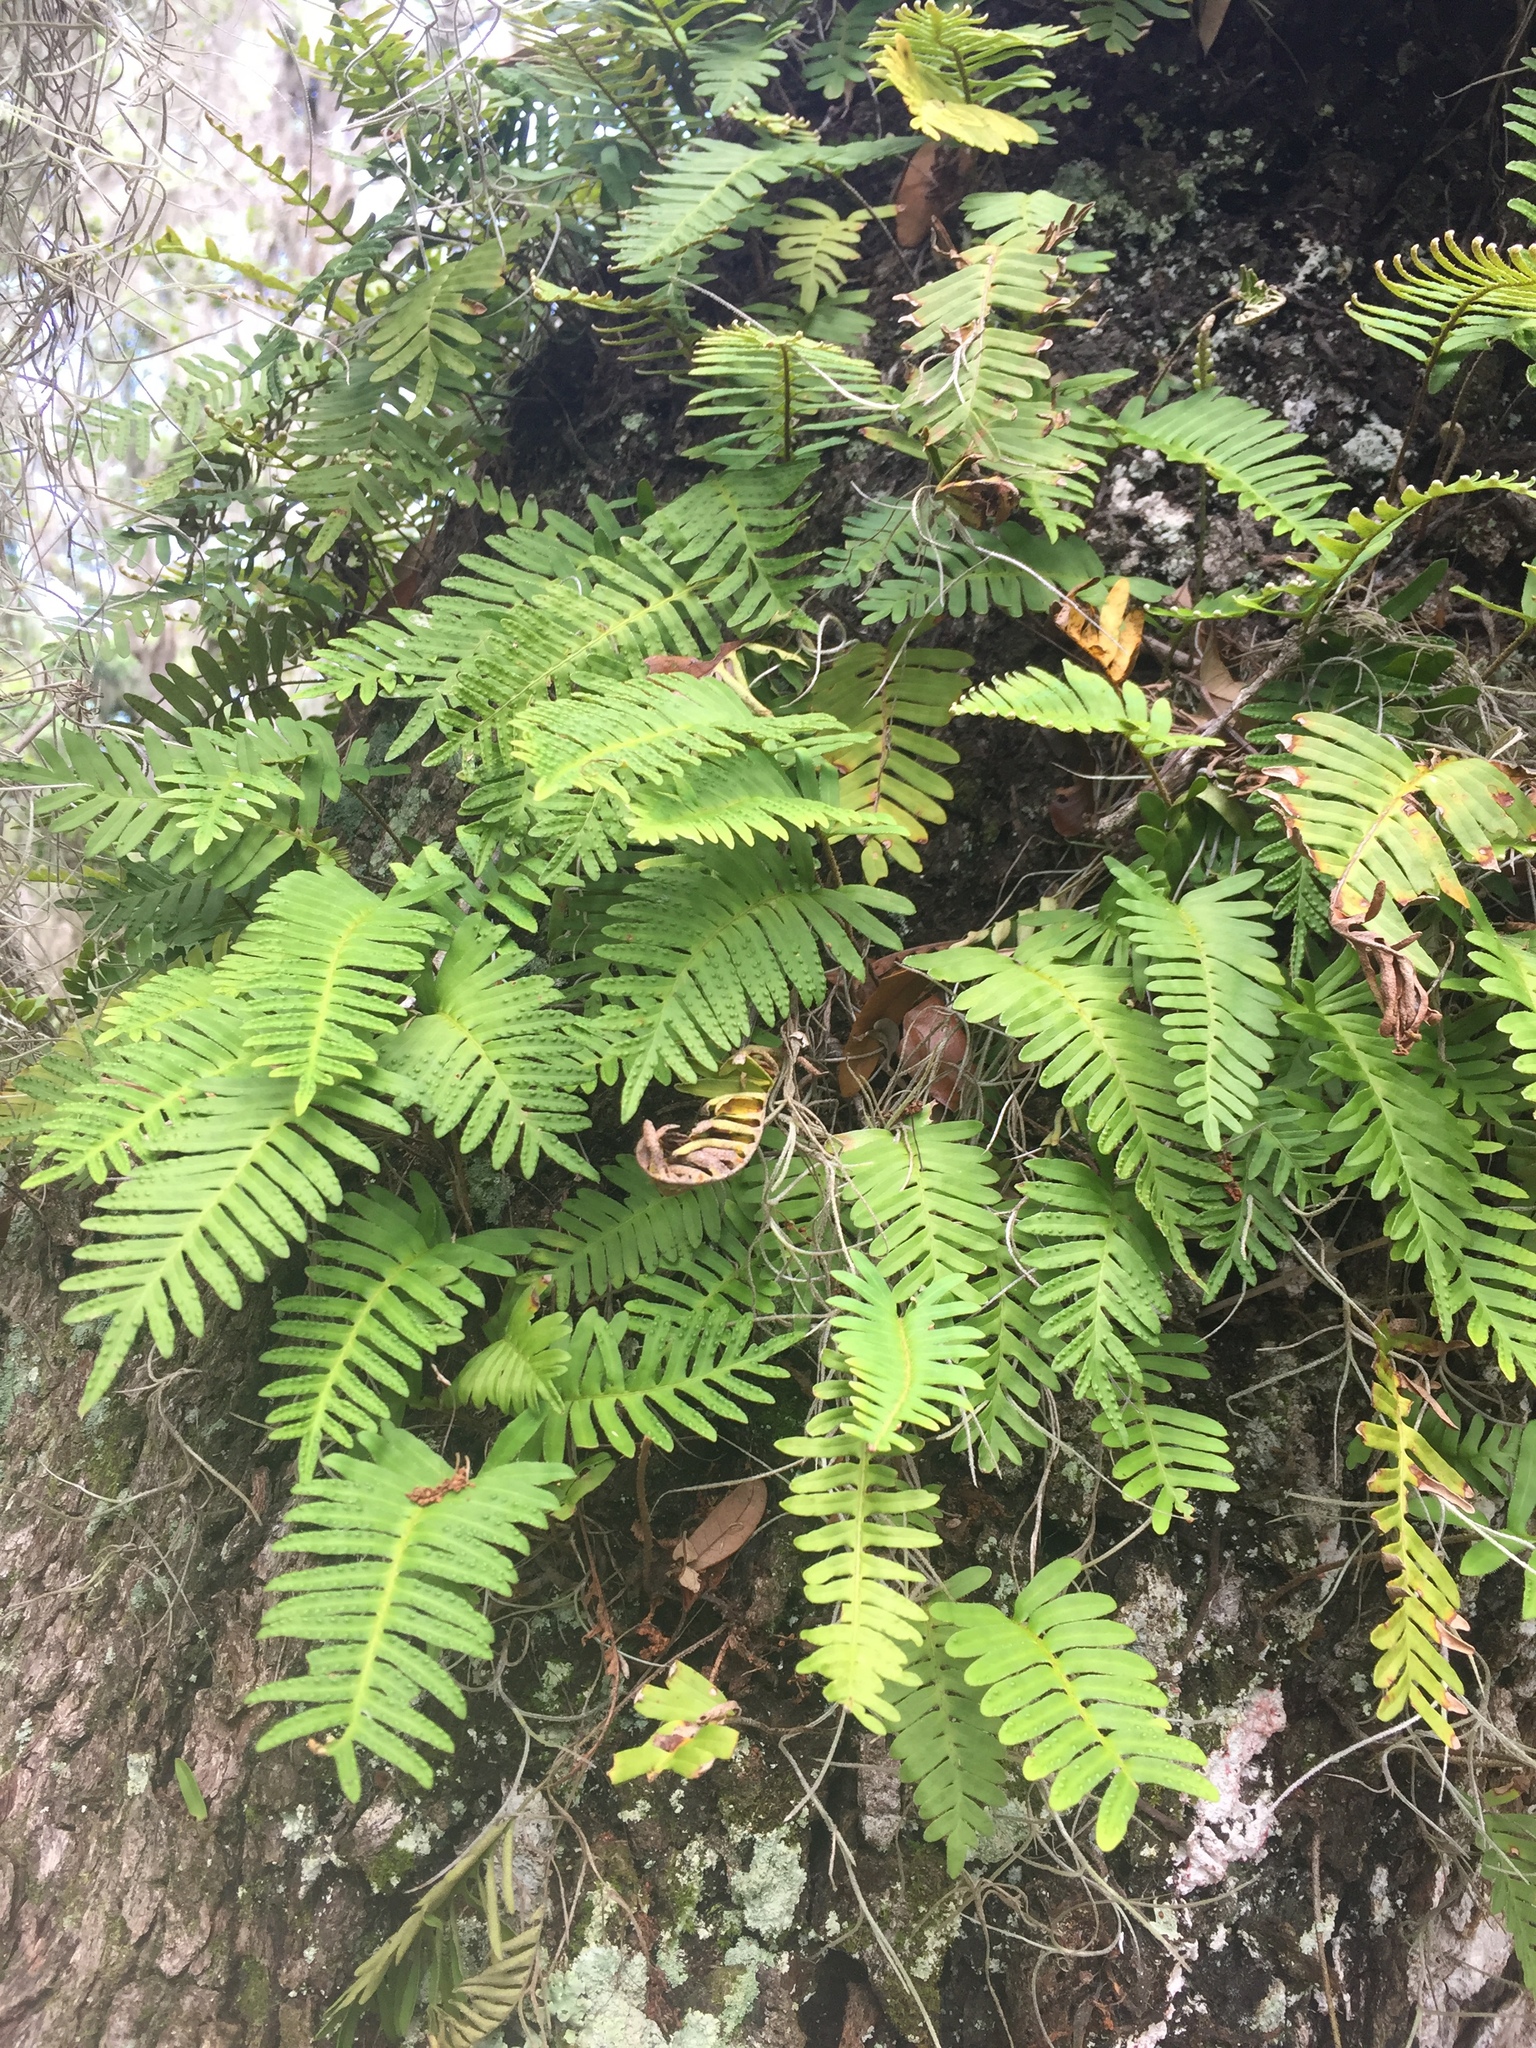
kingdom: Plantae
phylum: Tracheophyta
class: Polypodiopsida
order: Polypodiales
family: Polypodiaceae
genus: Pleopeltis
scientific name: Pleopeltis michauxiana
